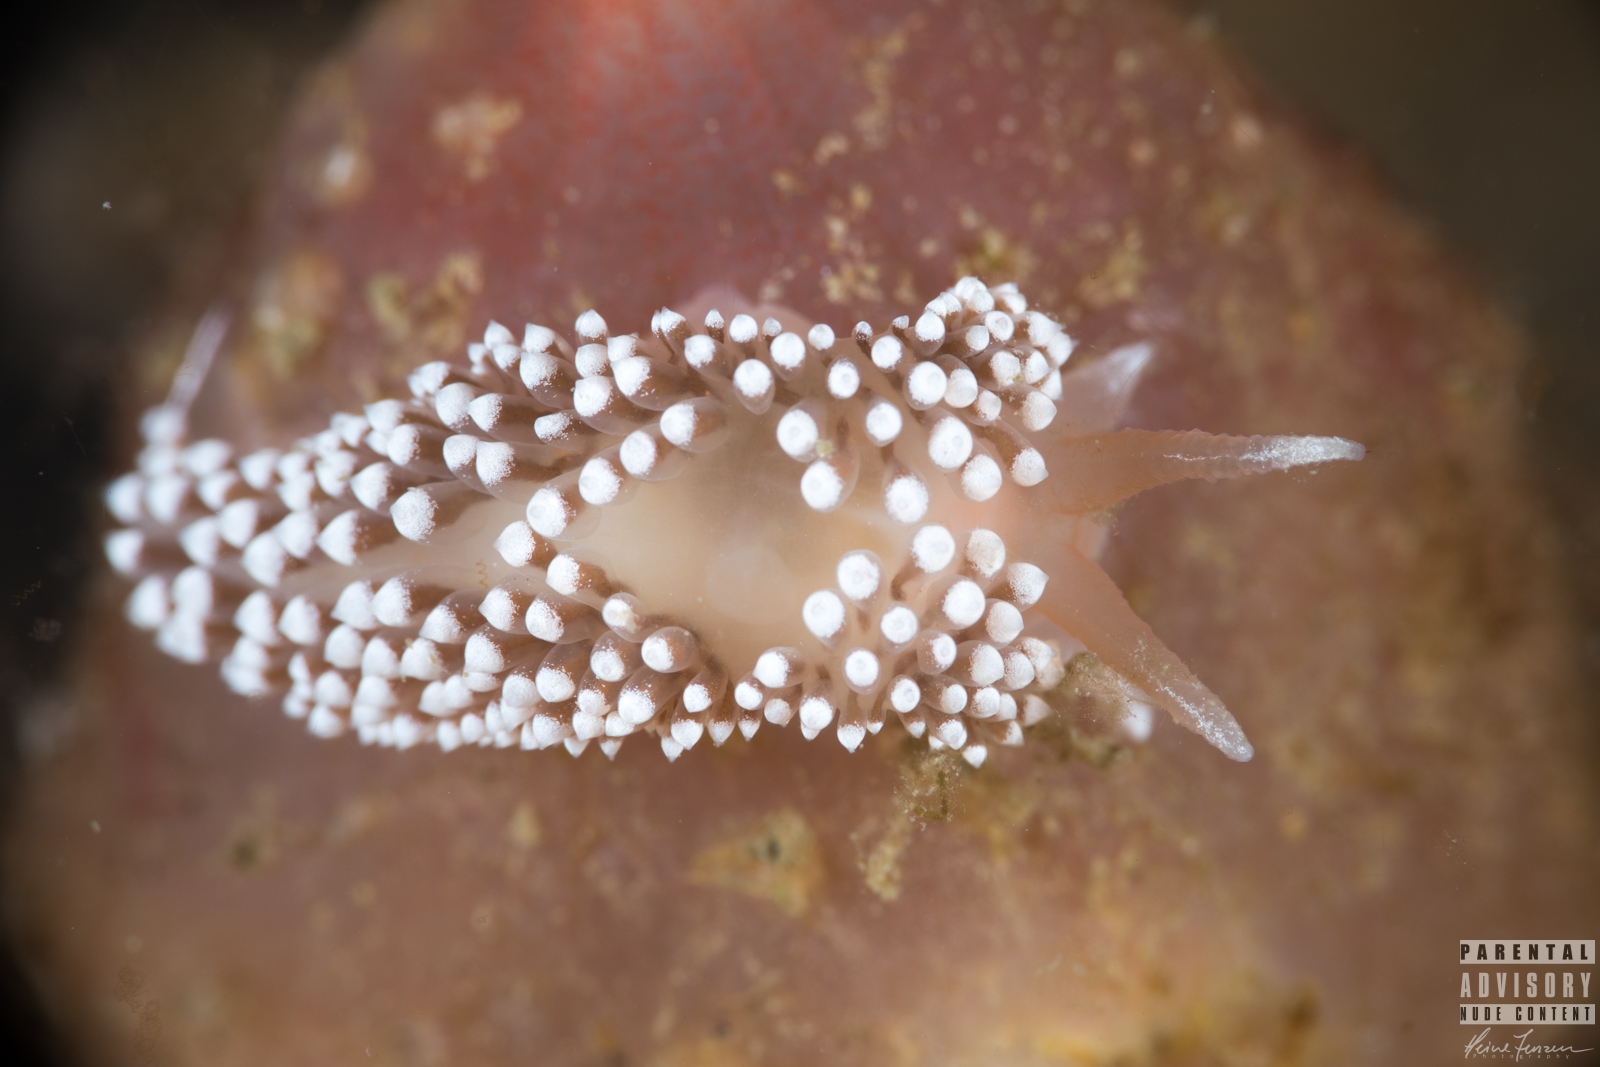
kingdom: Animalia
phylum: Mollusca
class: Gastropoda
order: Nudibranchia
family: Coryphellidae
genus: Coryphella
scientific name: Coryphella verrucosa
